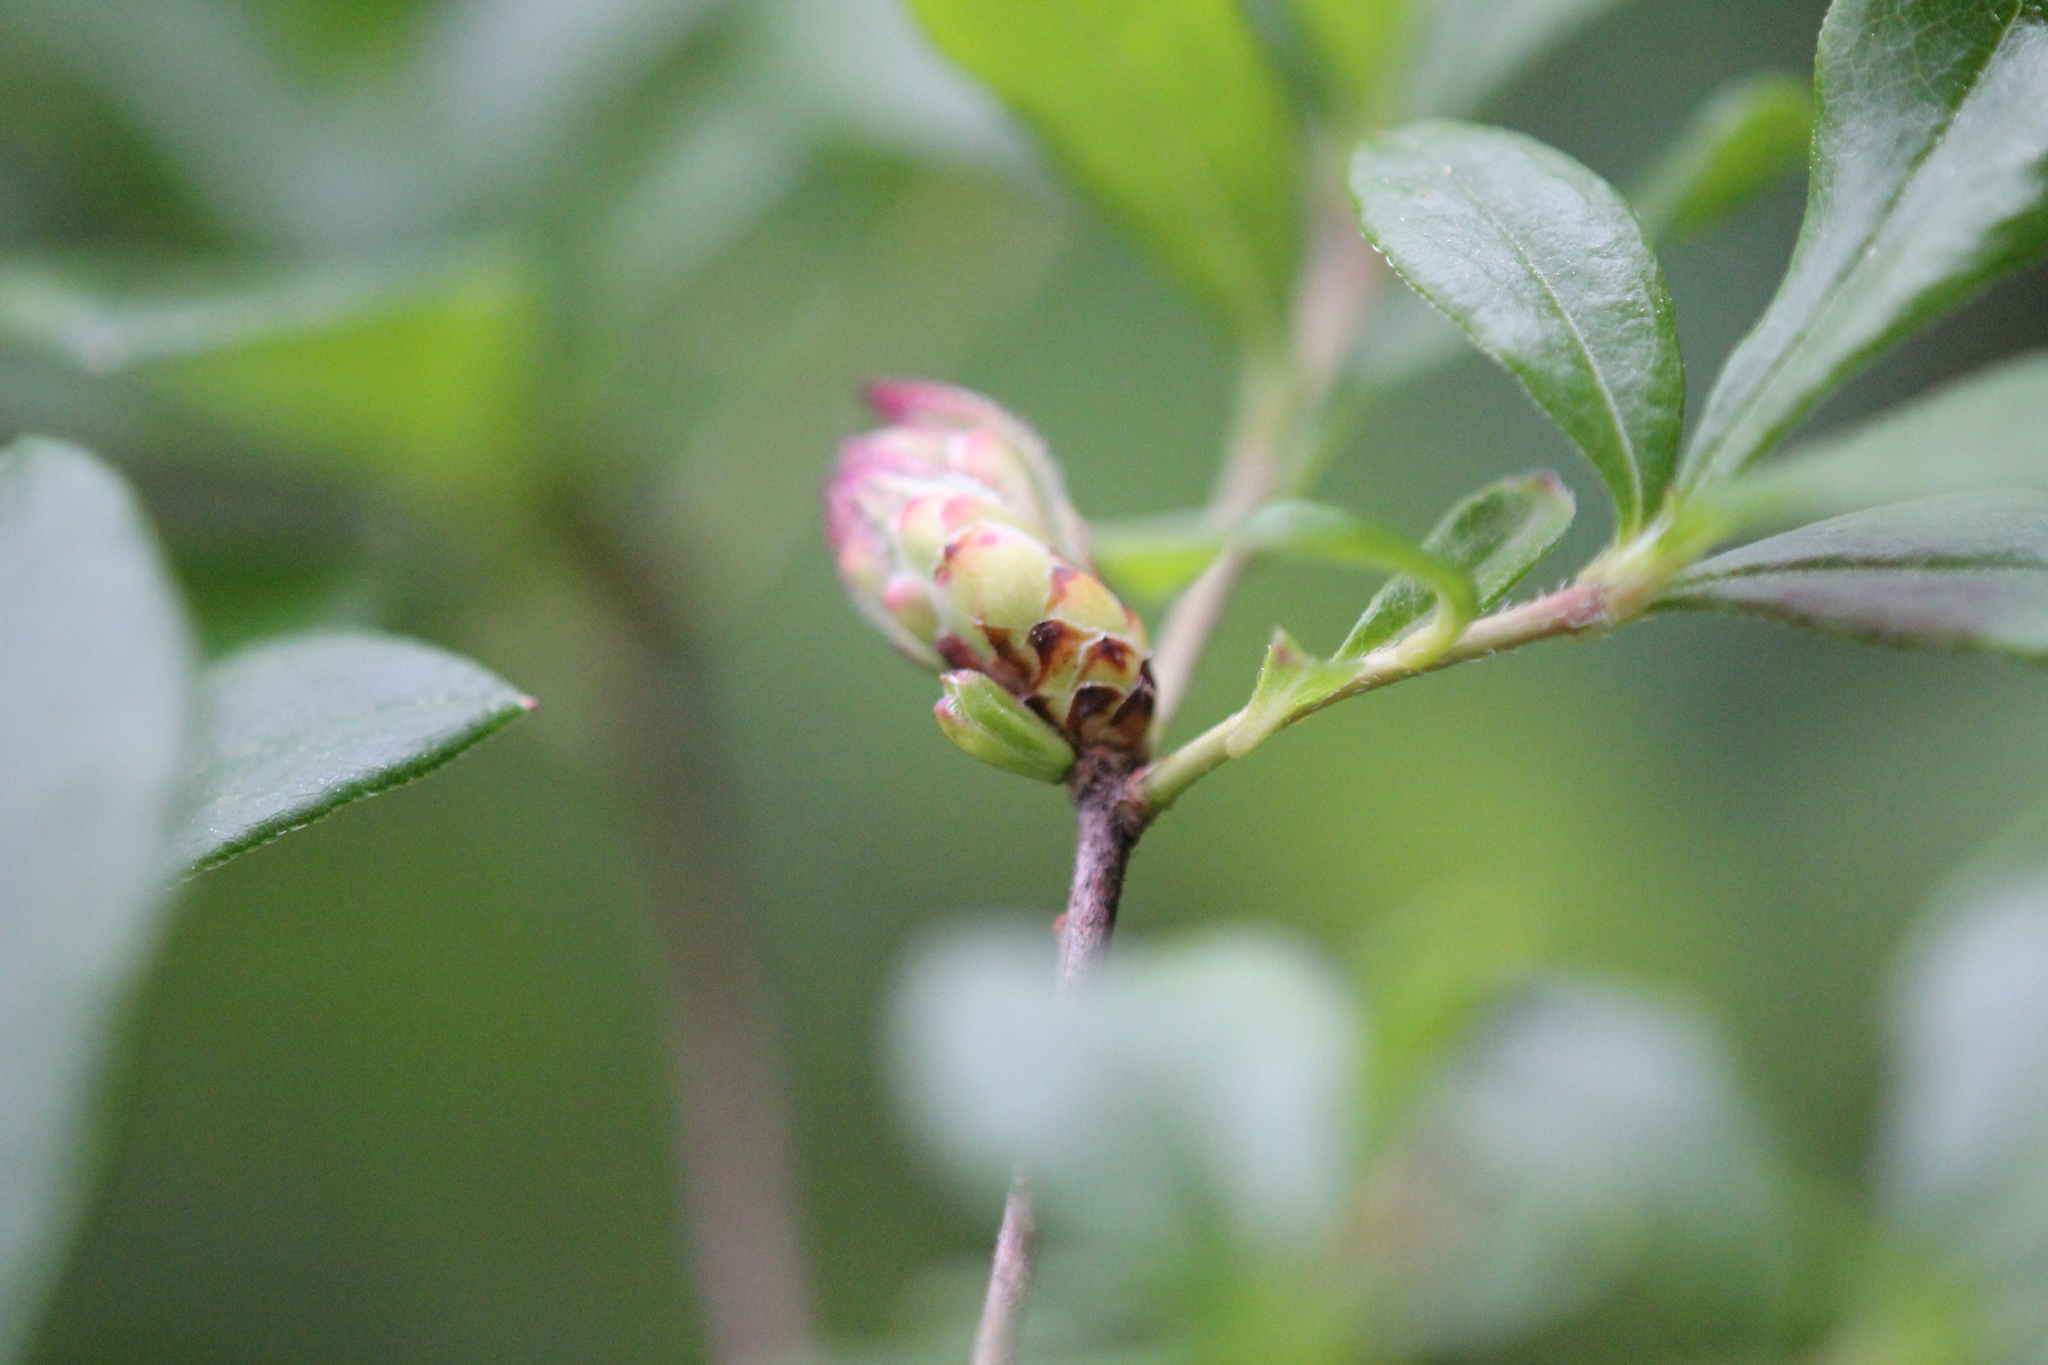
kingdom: Plantae
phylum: Tracheophyta
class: Magnoliopsida
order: Ericales
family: Ericaceae
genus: Rhododendron
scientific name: Rhododendron viscosum
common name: Clammy azalea
